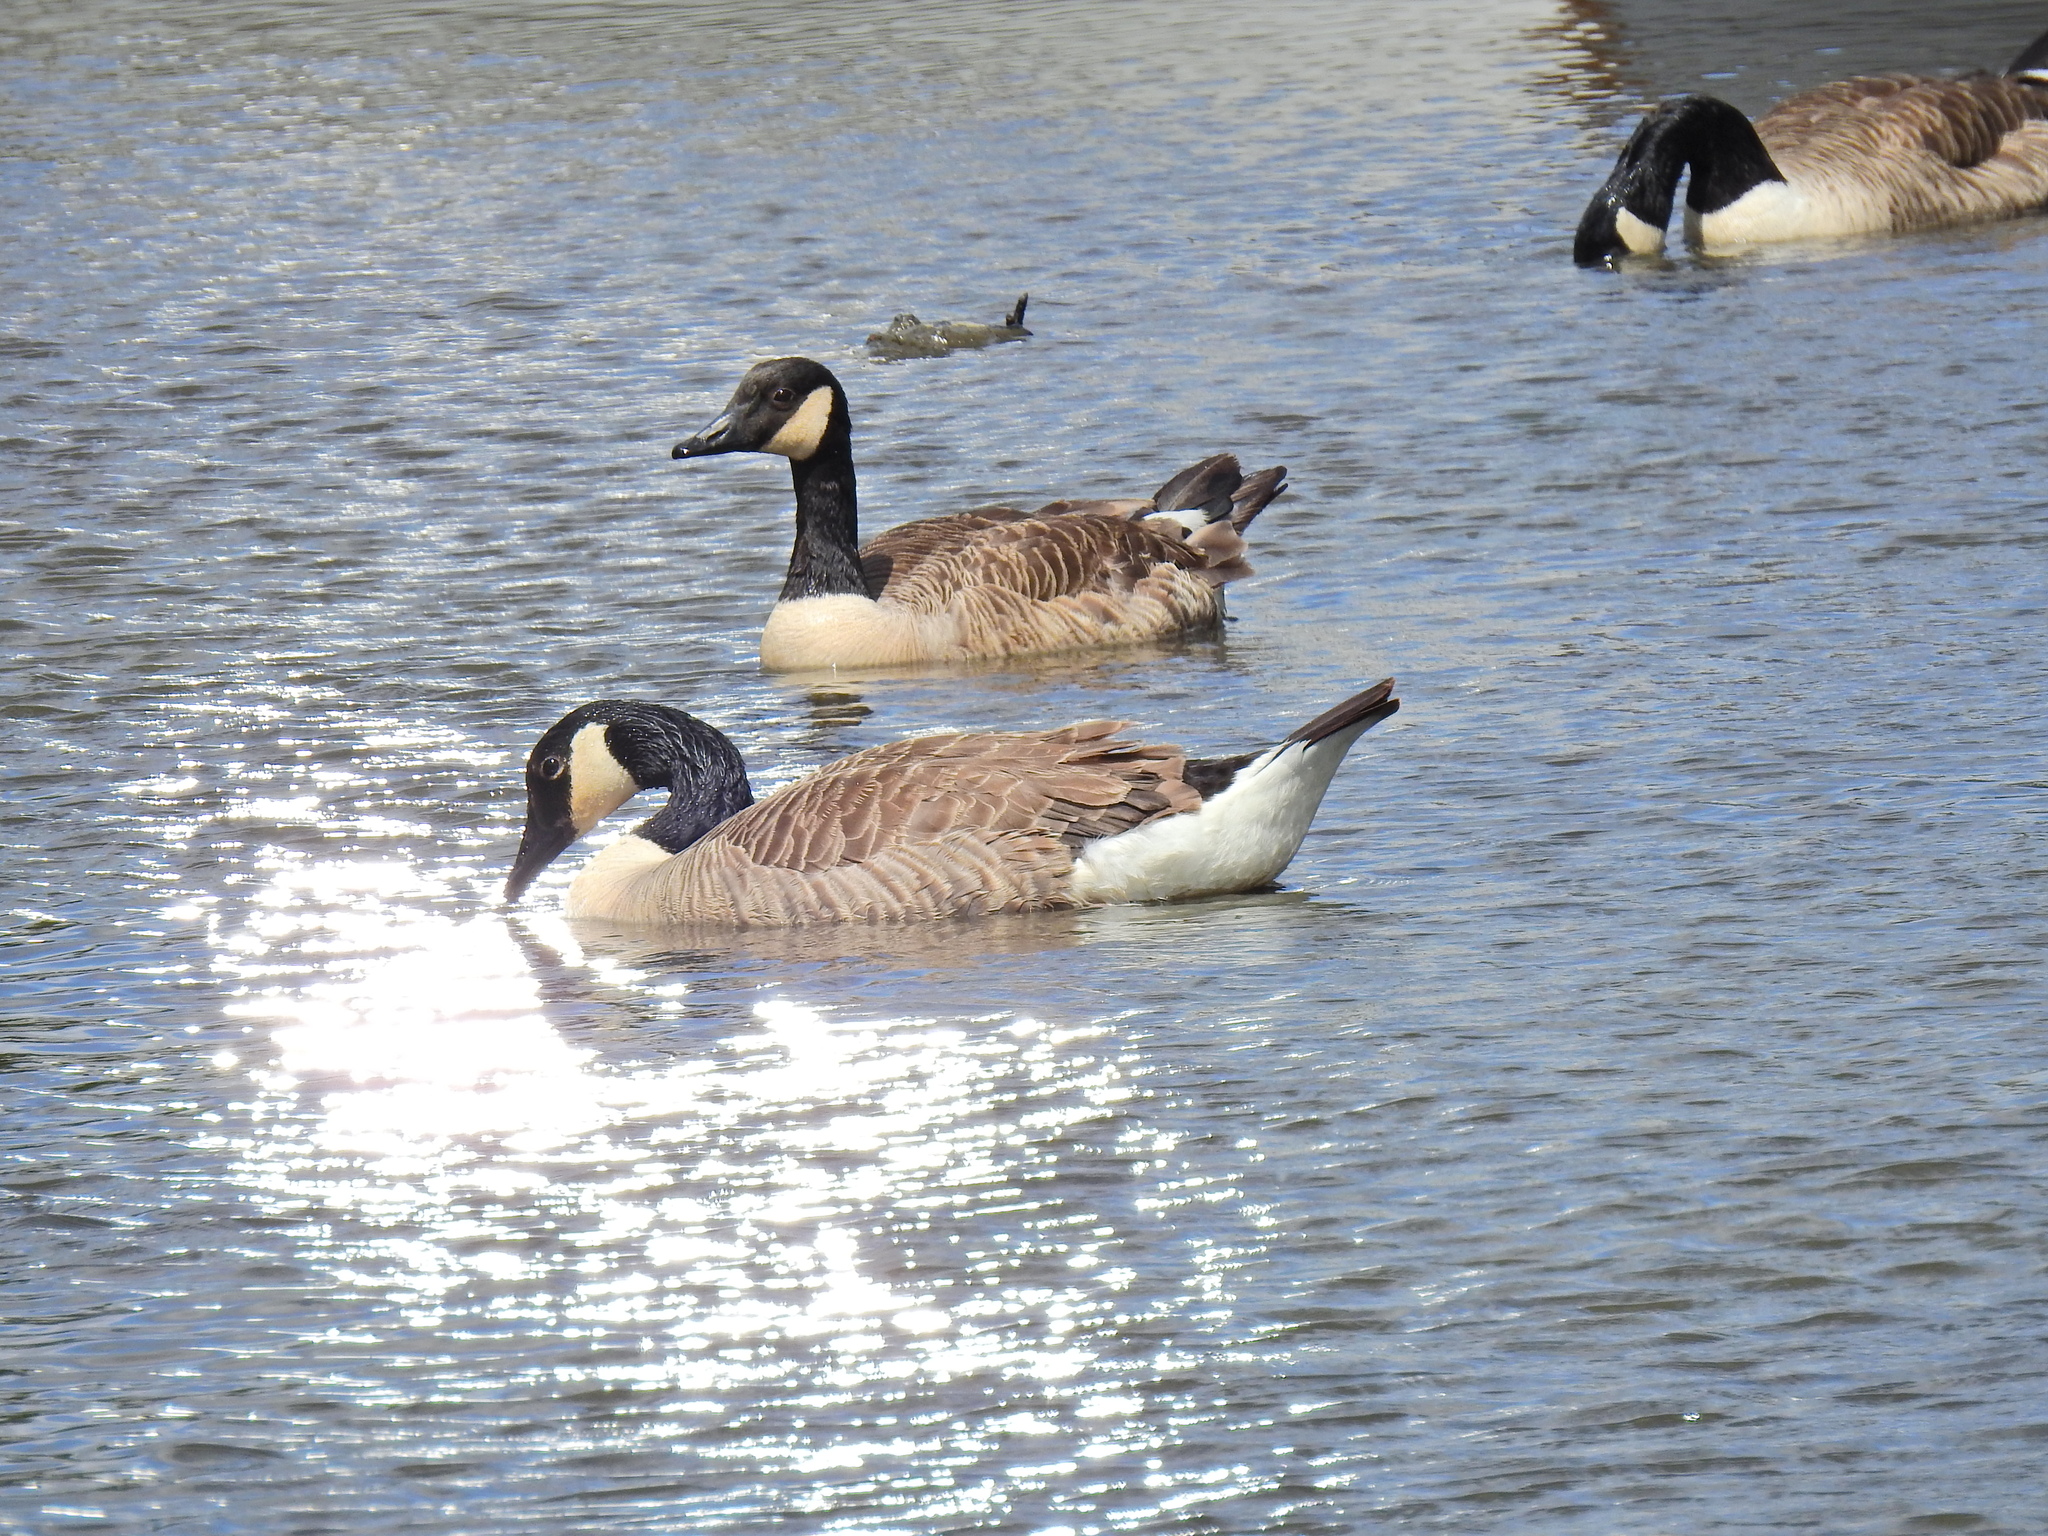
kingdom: Animalia
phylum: Chordata
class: Aves
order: Anseriformes
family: Anatidae
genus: Branta
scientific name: Branta canadensis
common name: Canada goose
